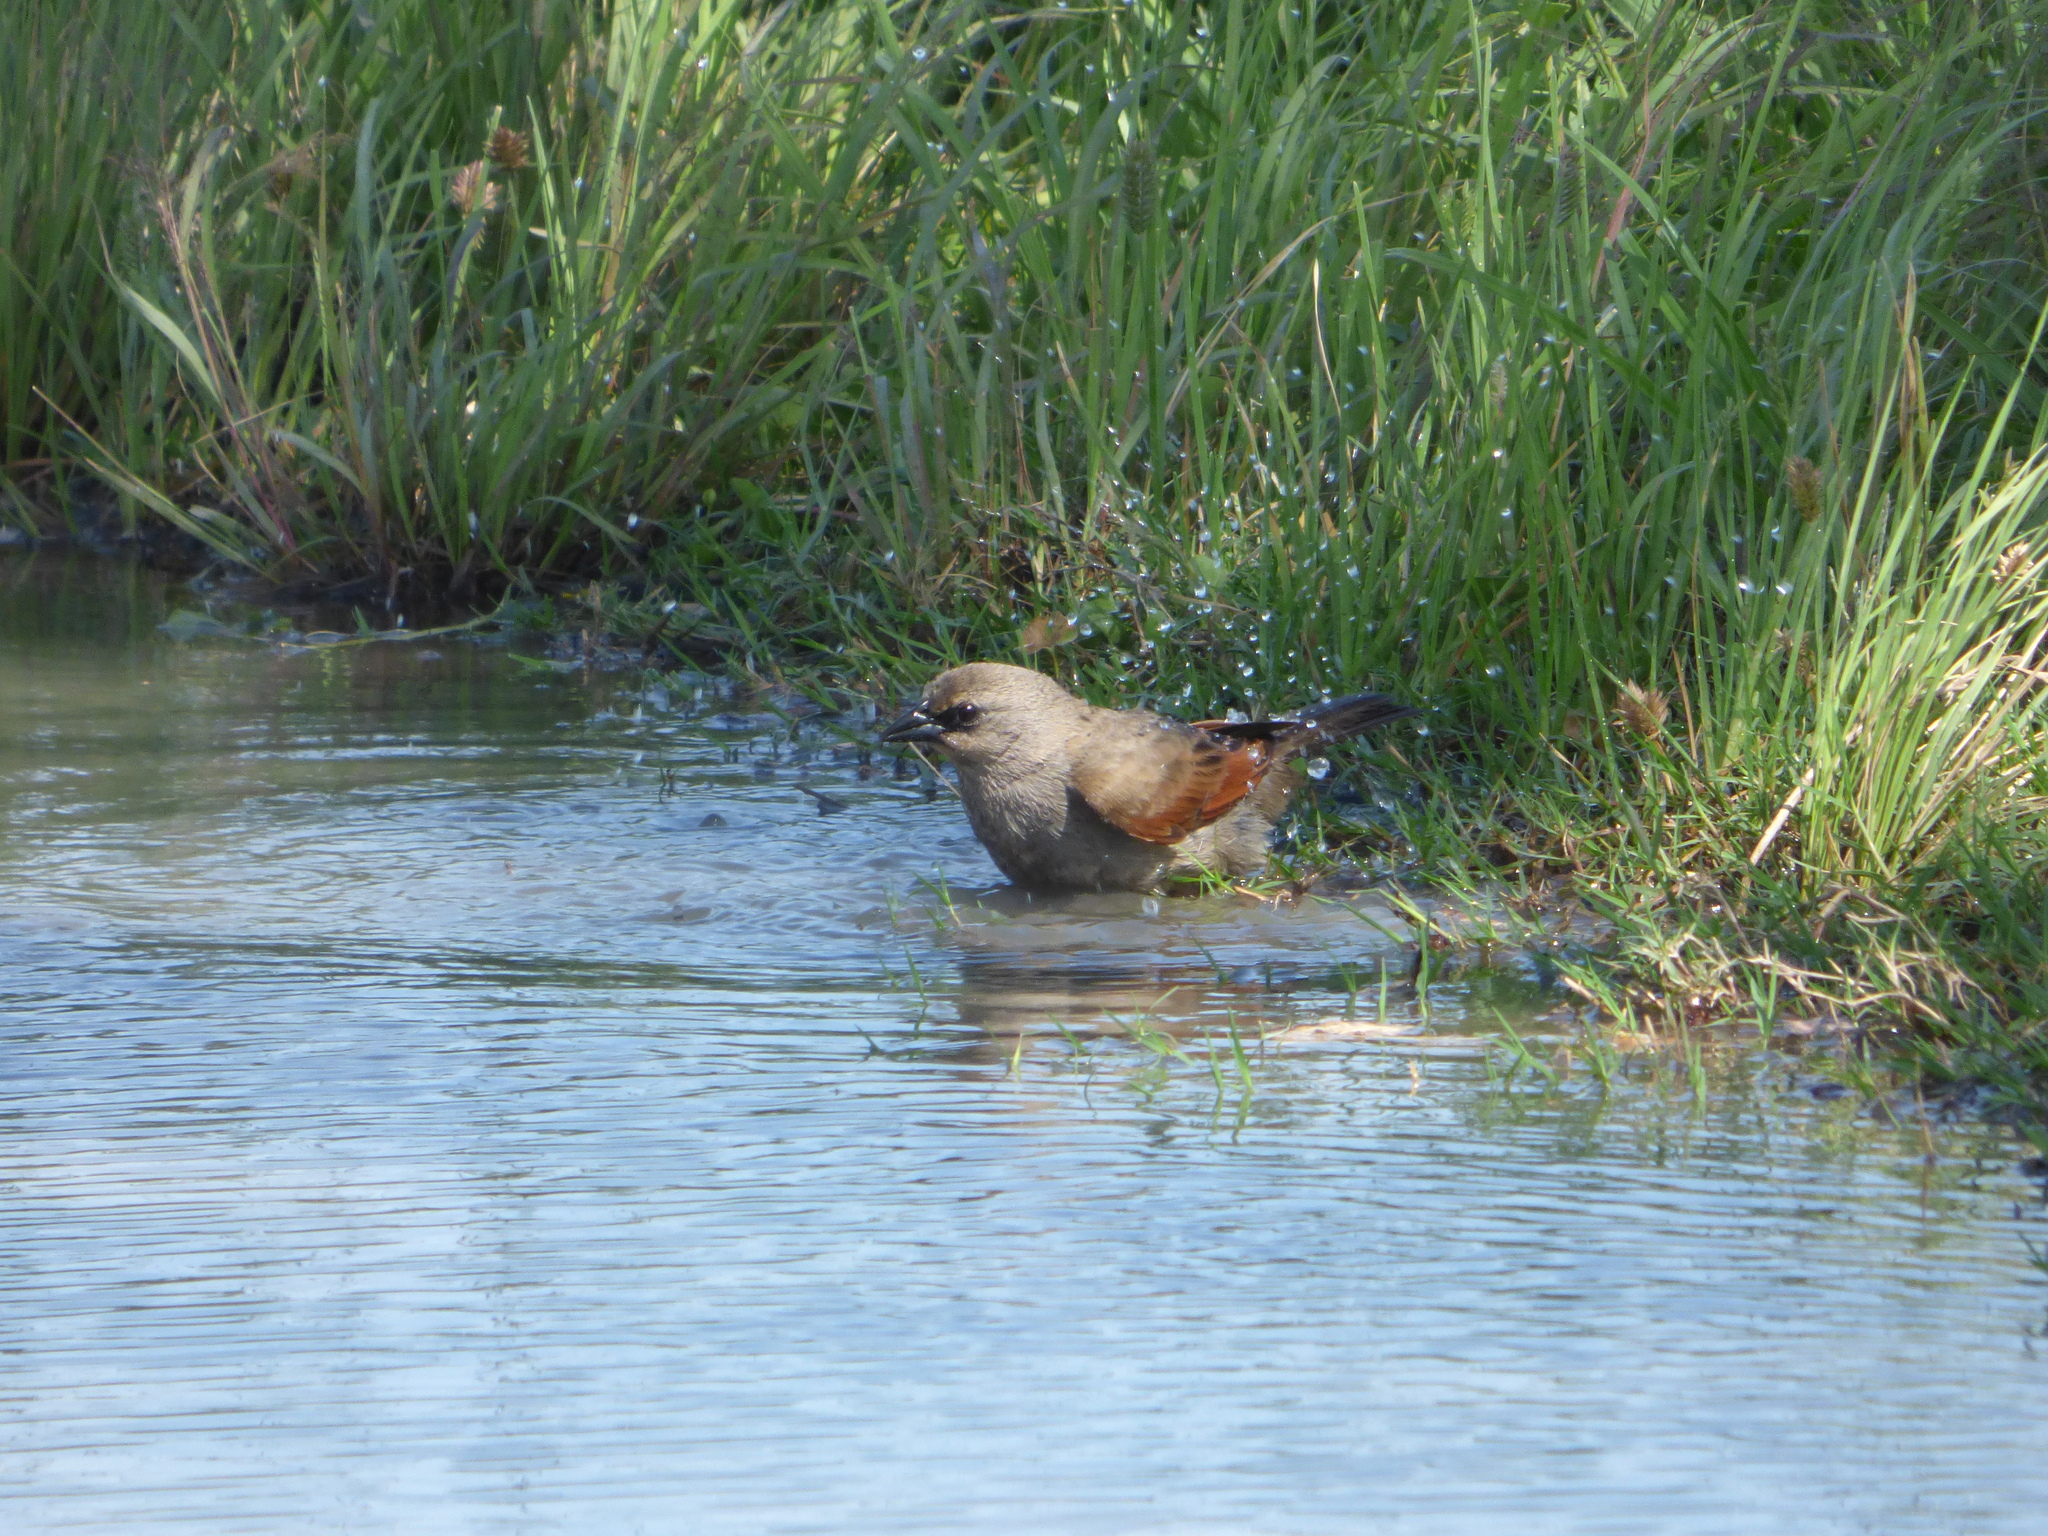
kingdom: Animalia
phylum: Chordata
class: Aves
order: Passeriformes
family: Icteridae
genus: Agelaioides
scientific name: Agelaioides badius
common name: Baywing
